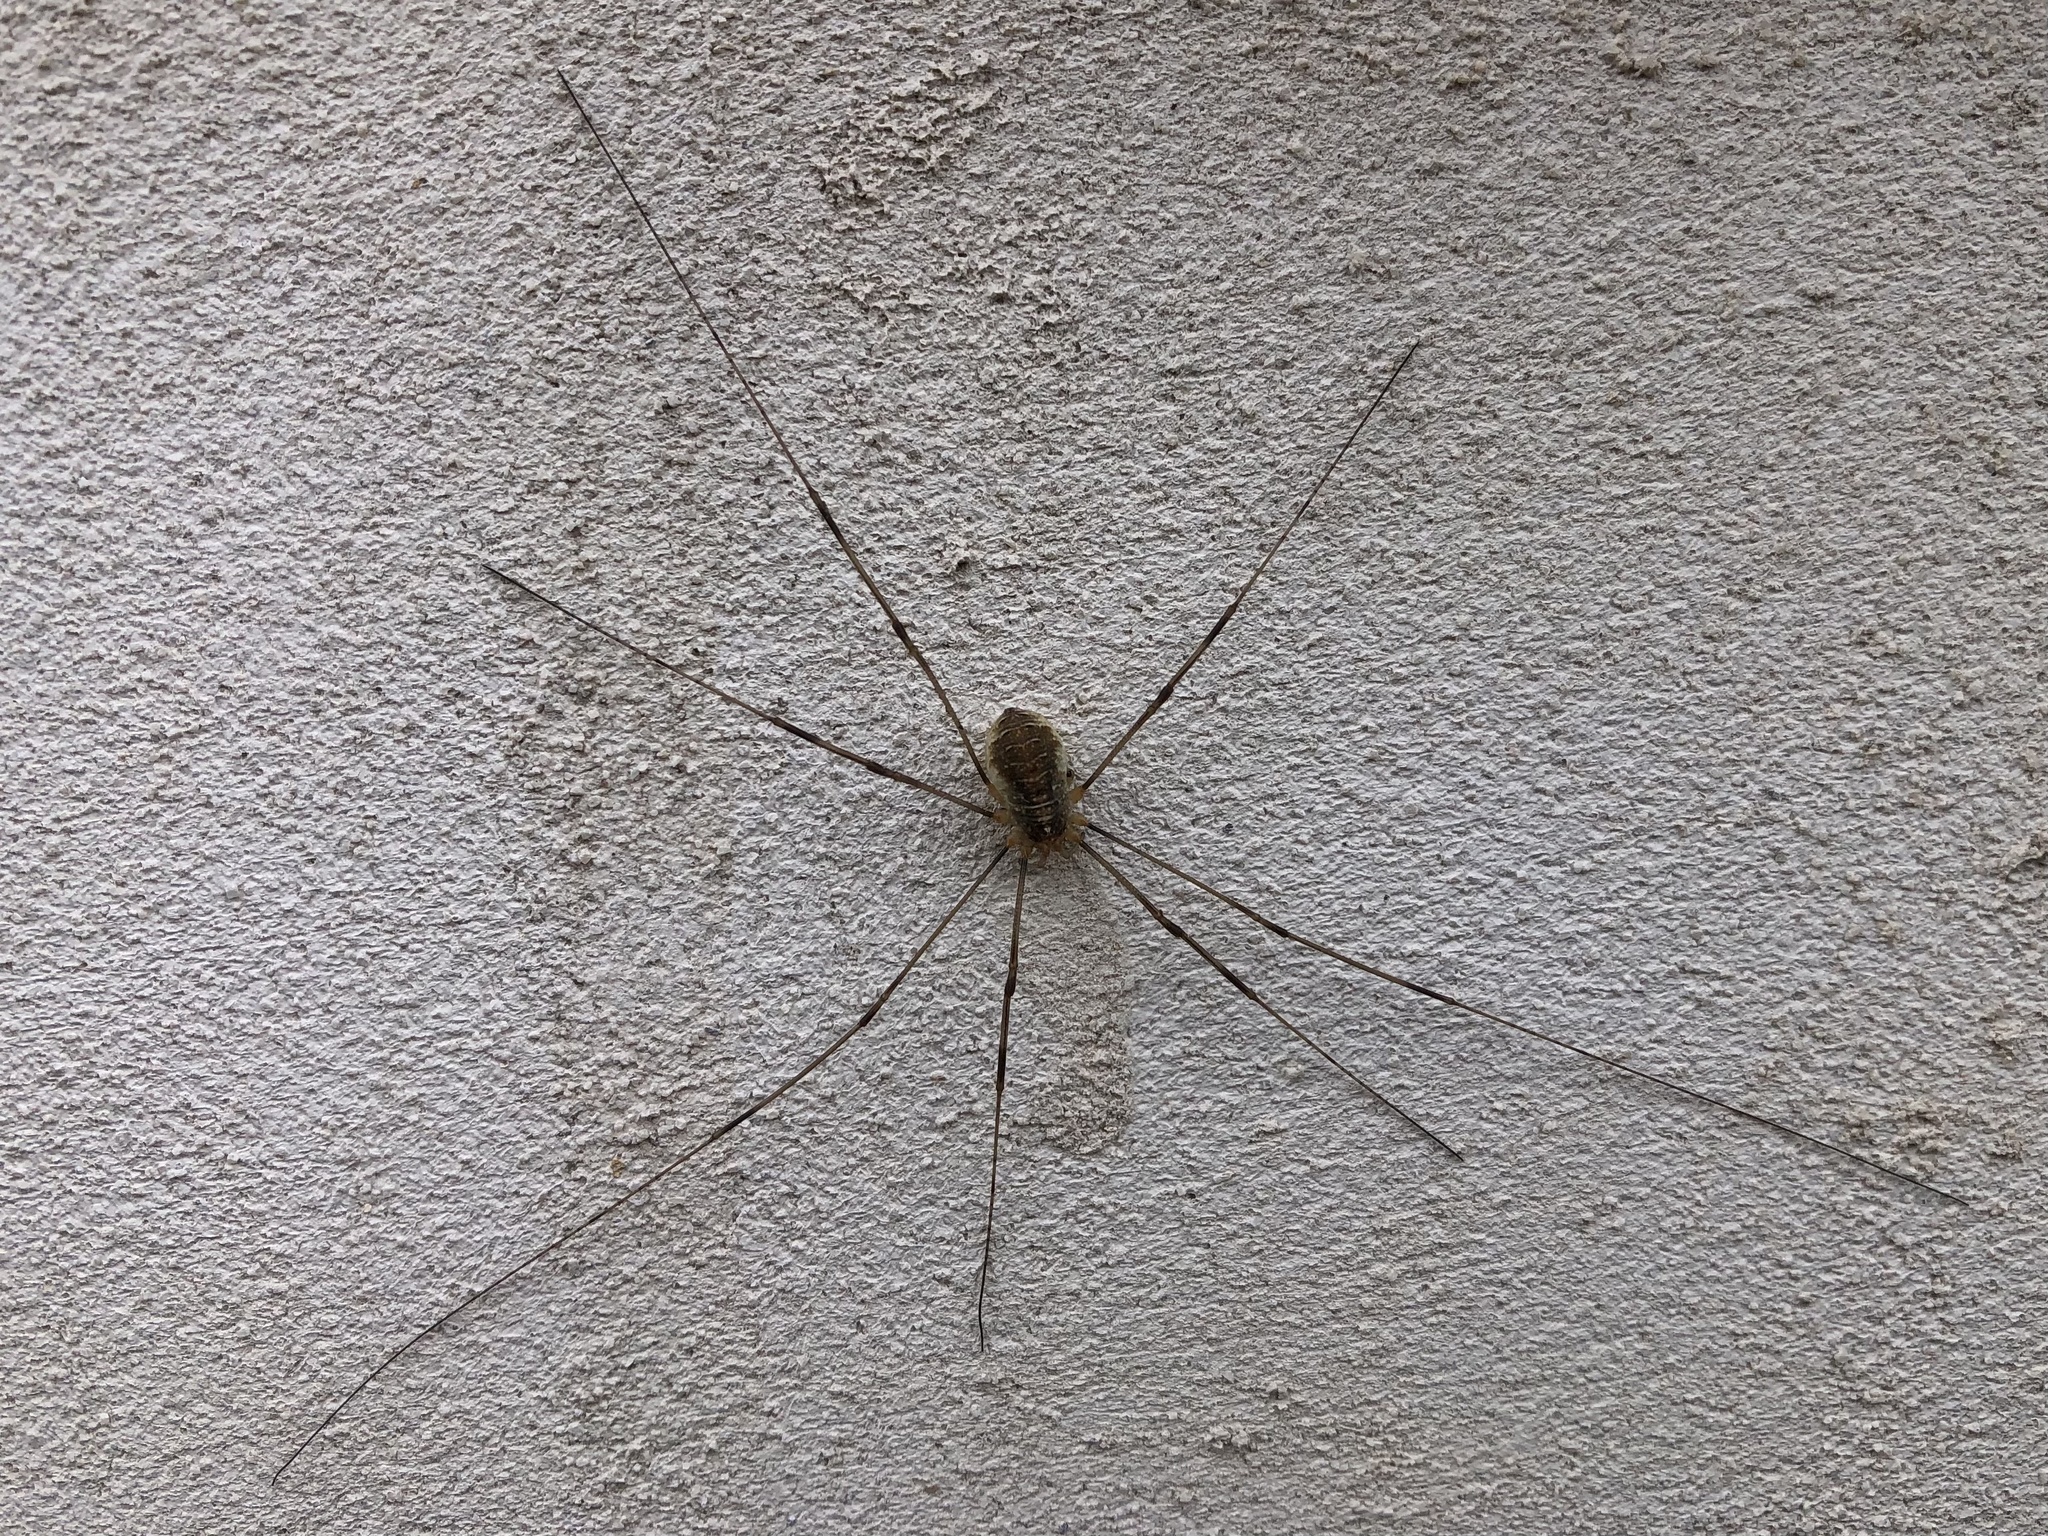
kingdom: Animalia
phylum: Arthropoda
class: Arachnida
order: Opiliones
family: Phalangiidae
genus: Opilio
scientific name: Opilio canestrinii
